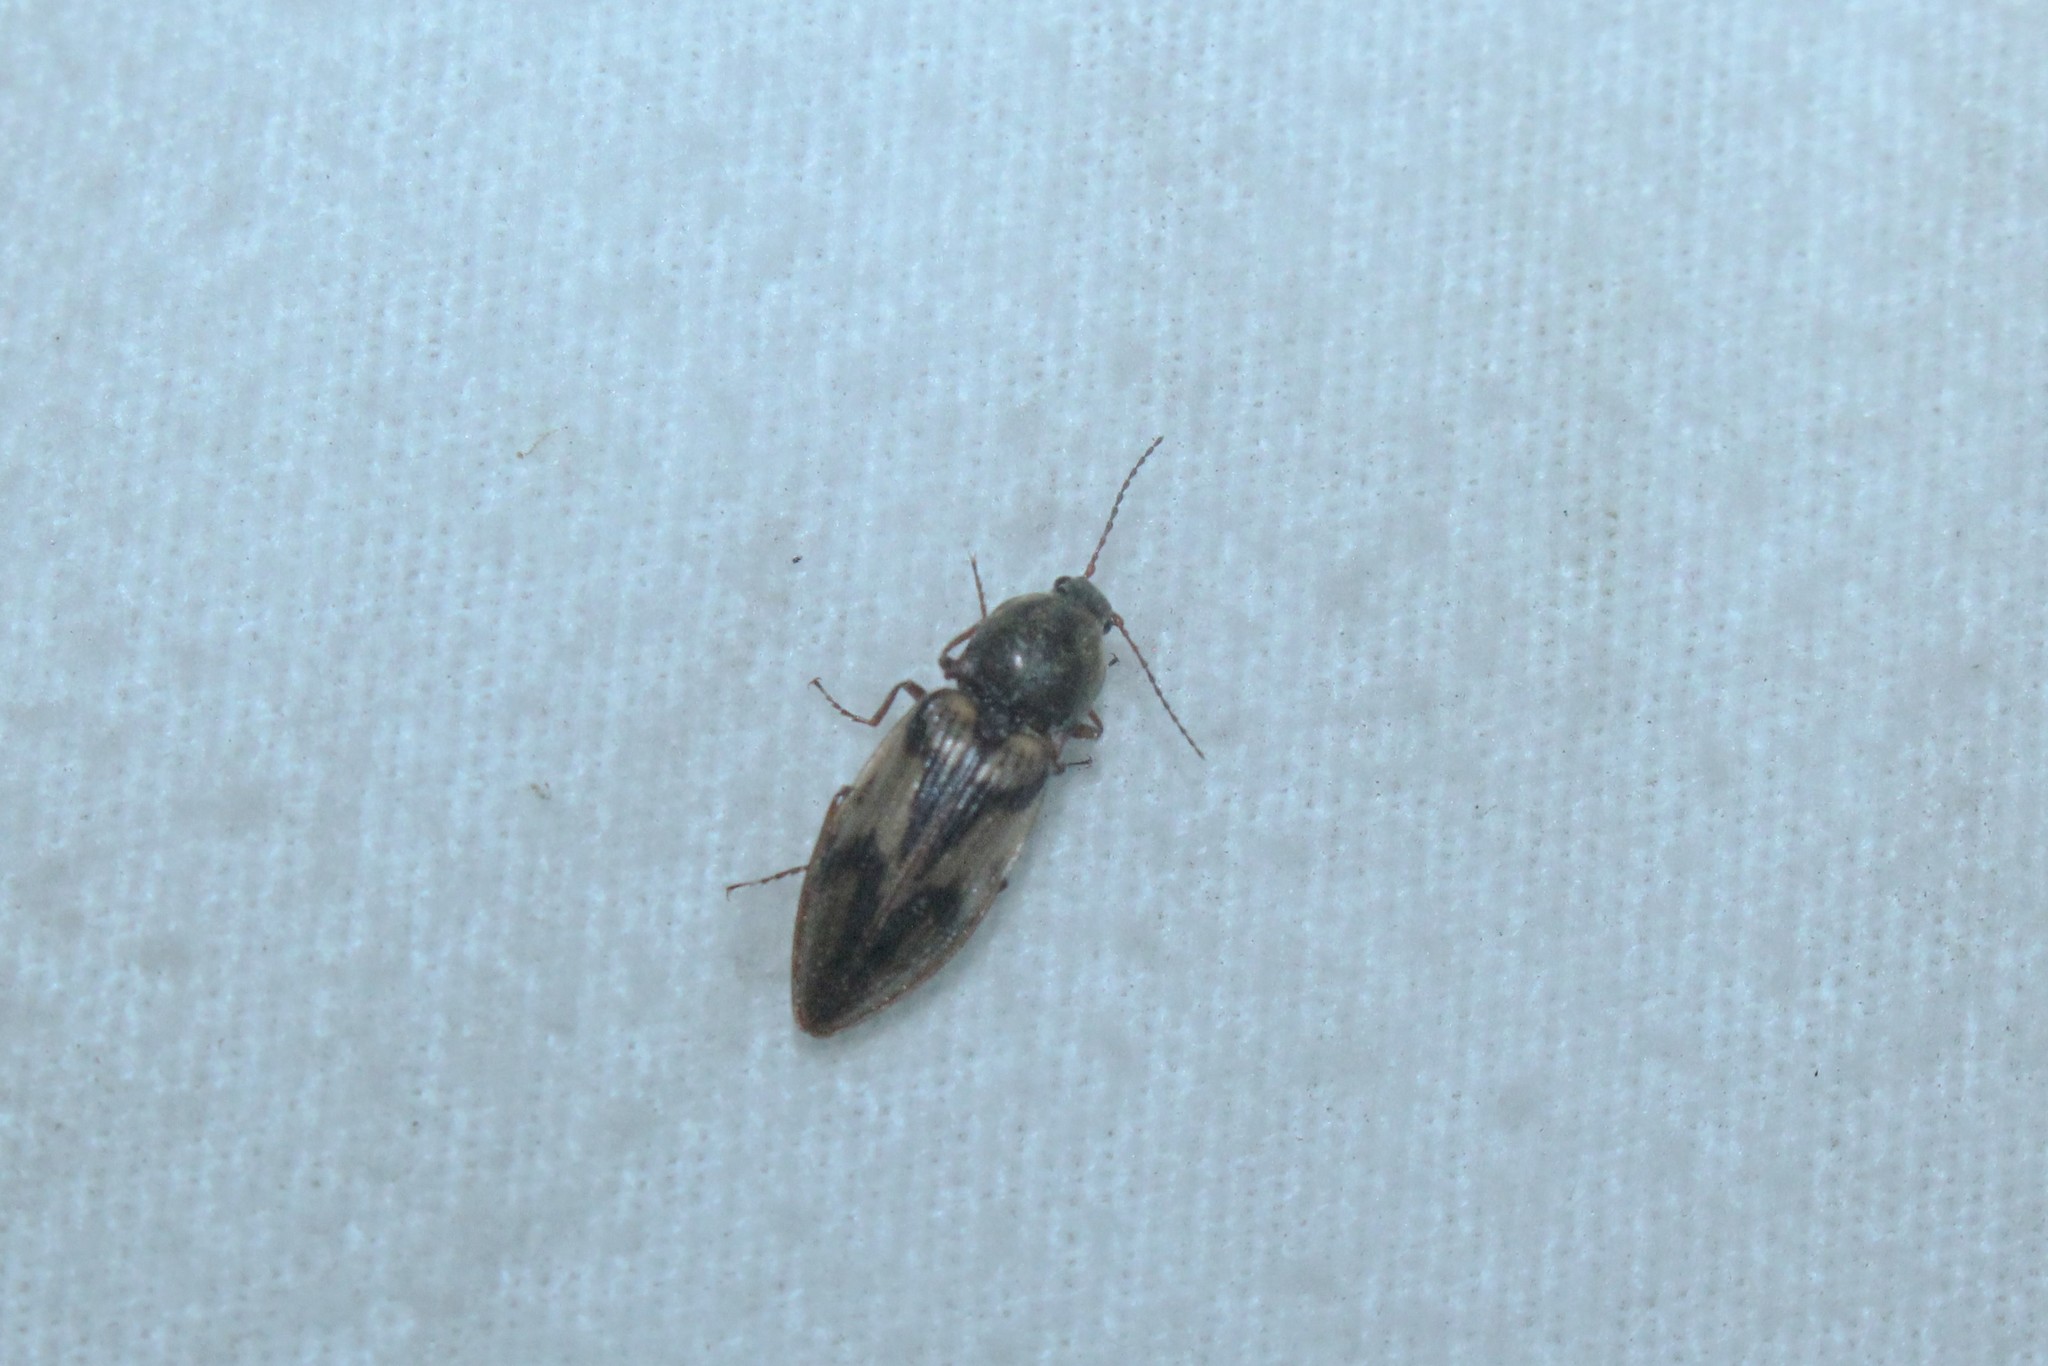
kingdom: Animalia
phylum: Arthropoda
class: Insecta
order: Coleoptera
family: Elateridae
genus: Stropenron
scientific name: Stropenron hieroglyphica
